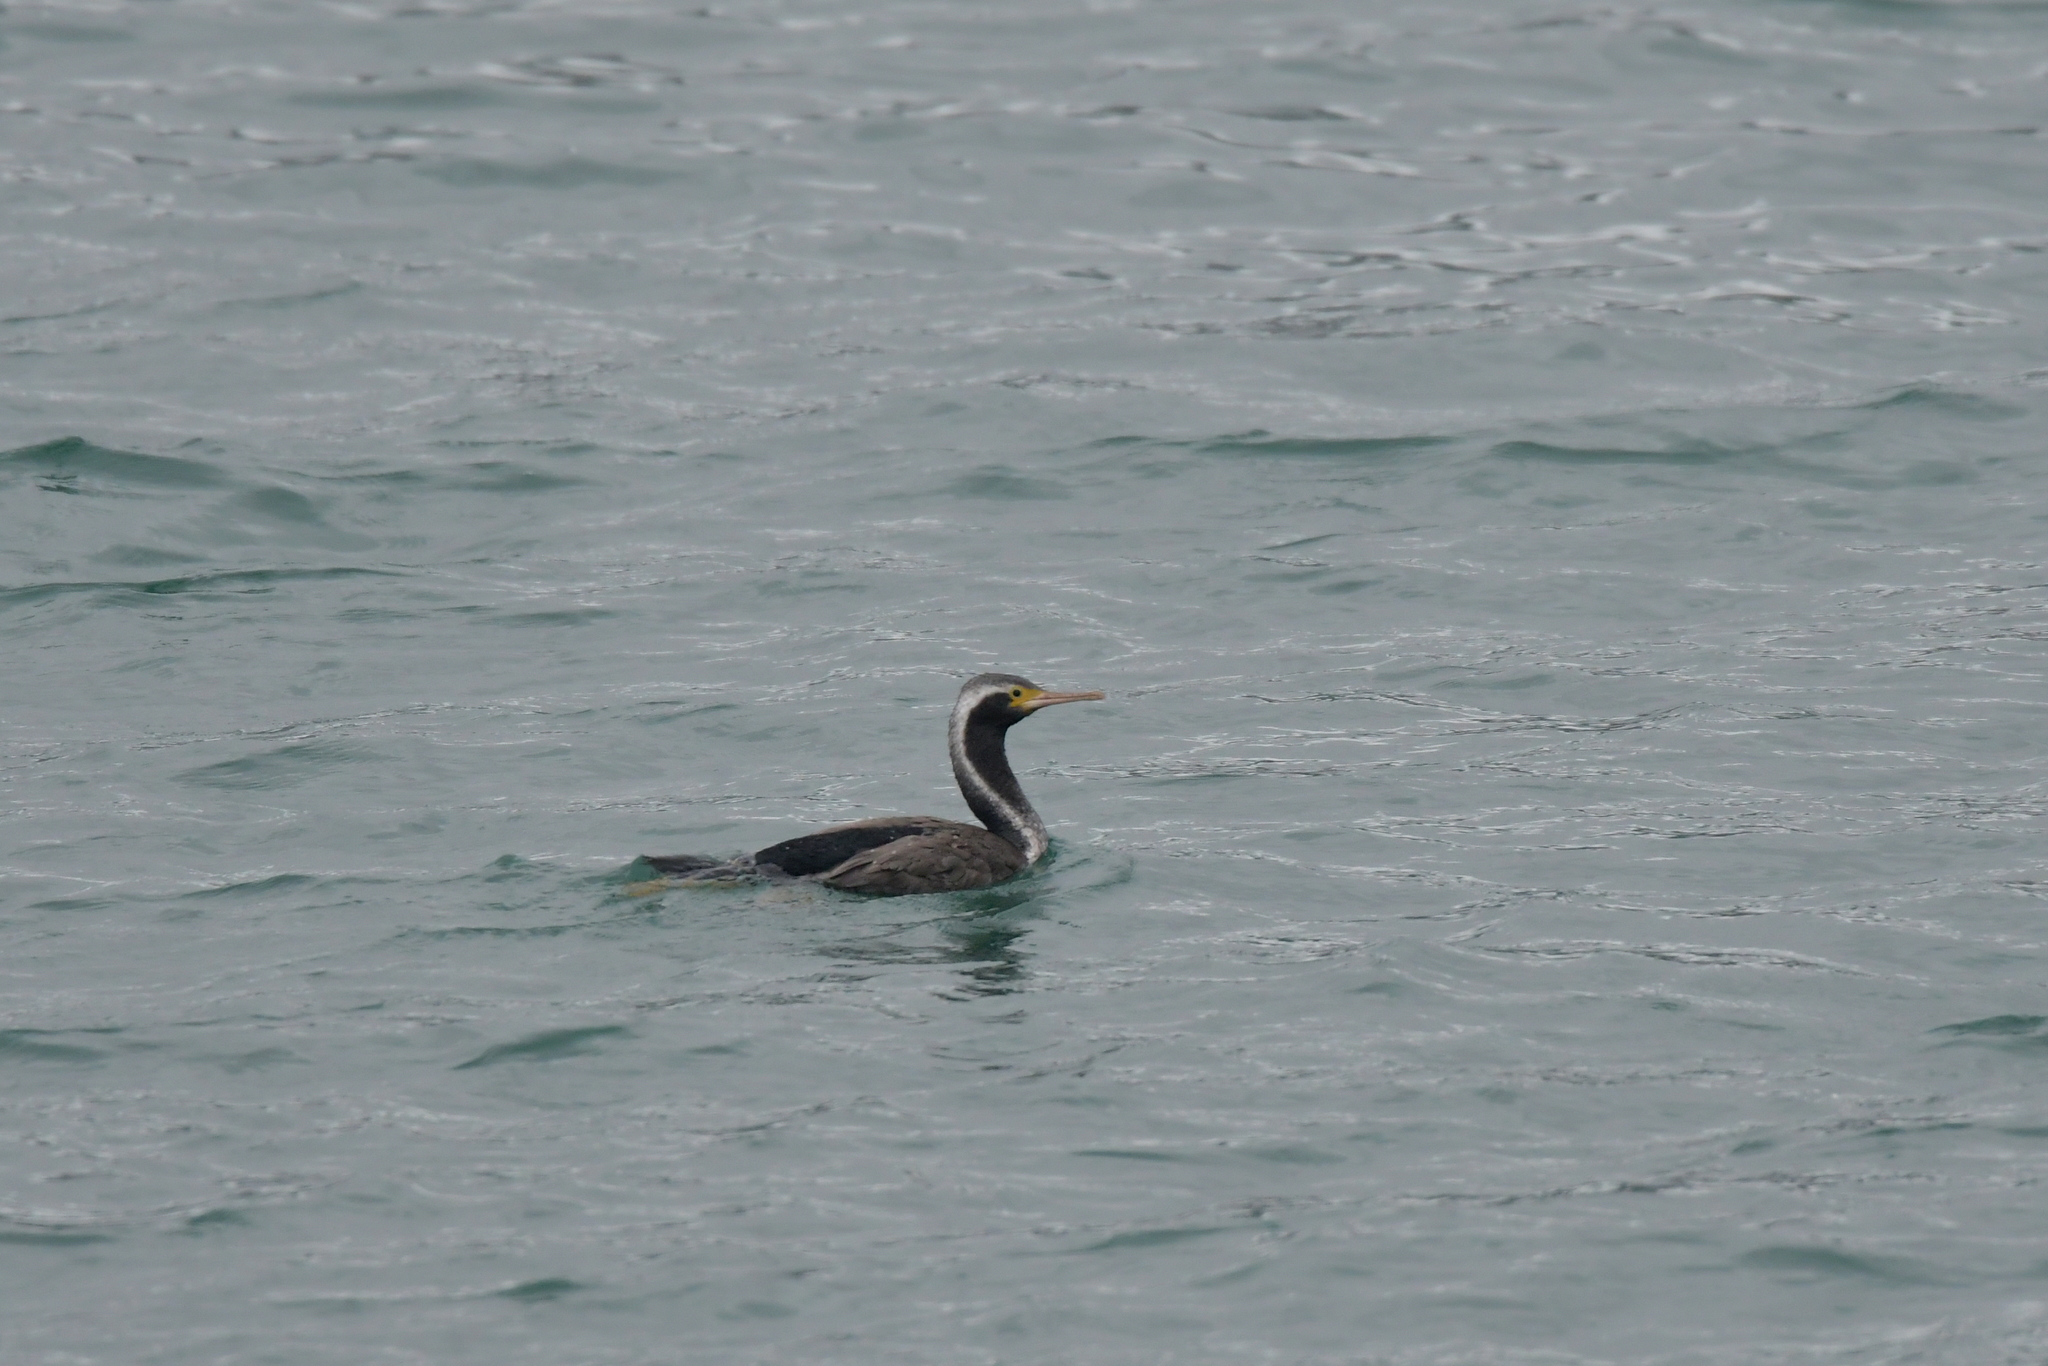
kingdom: Animalia
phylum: Chordata
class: Aves
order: Suliformes
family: Phalacrocoracidae
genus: Phalacrocorax
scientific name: Phalacrocorax punctatus
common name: Spotted shag
